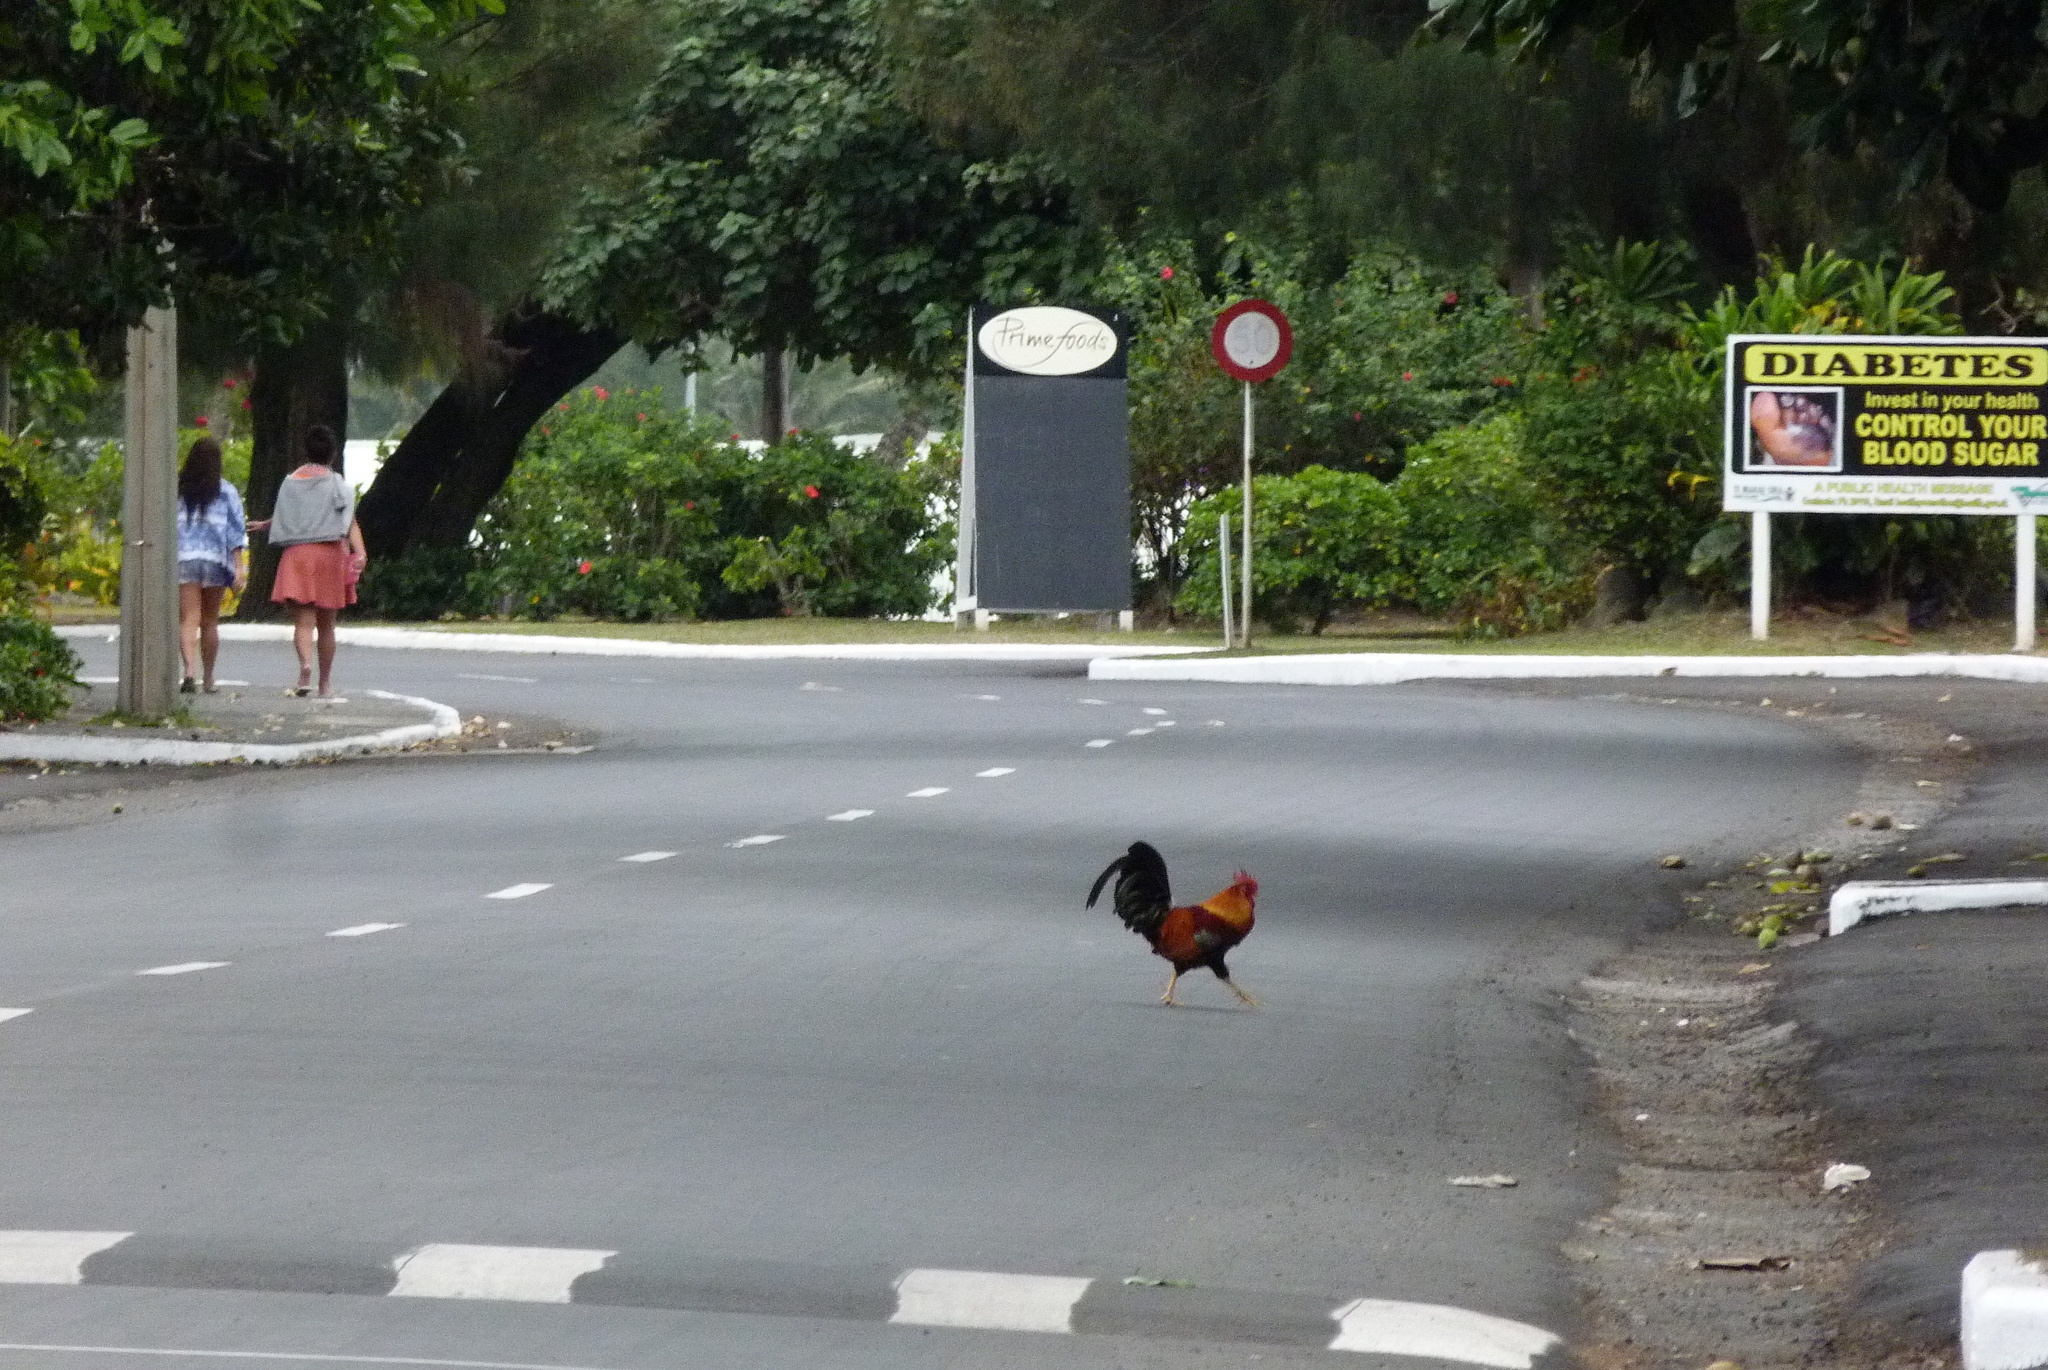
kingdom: Animalia
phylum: Chordata
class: Aves
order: Galliformes
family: Phasianidae
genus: Gallus
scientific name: Gallus gallus
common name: Red junglefowl
